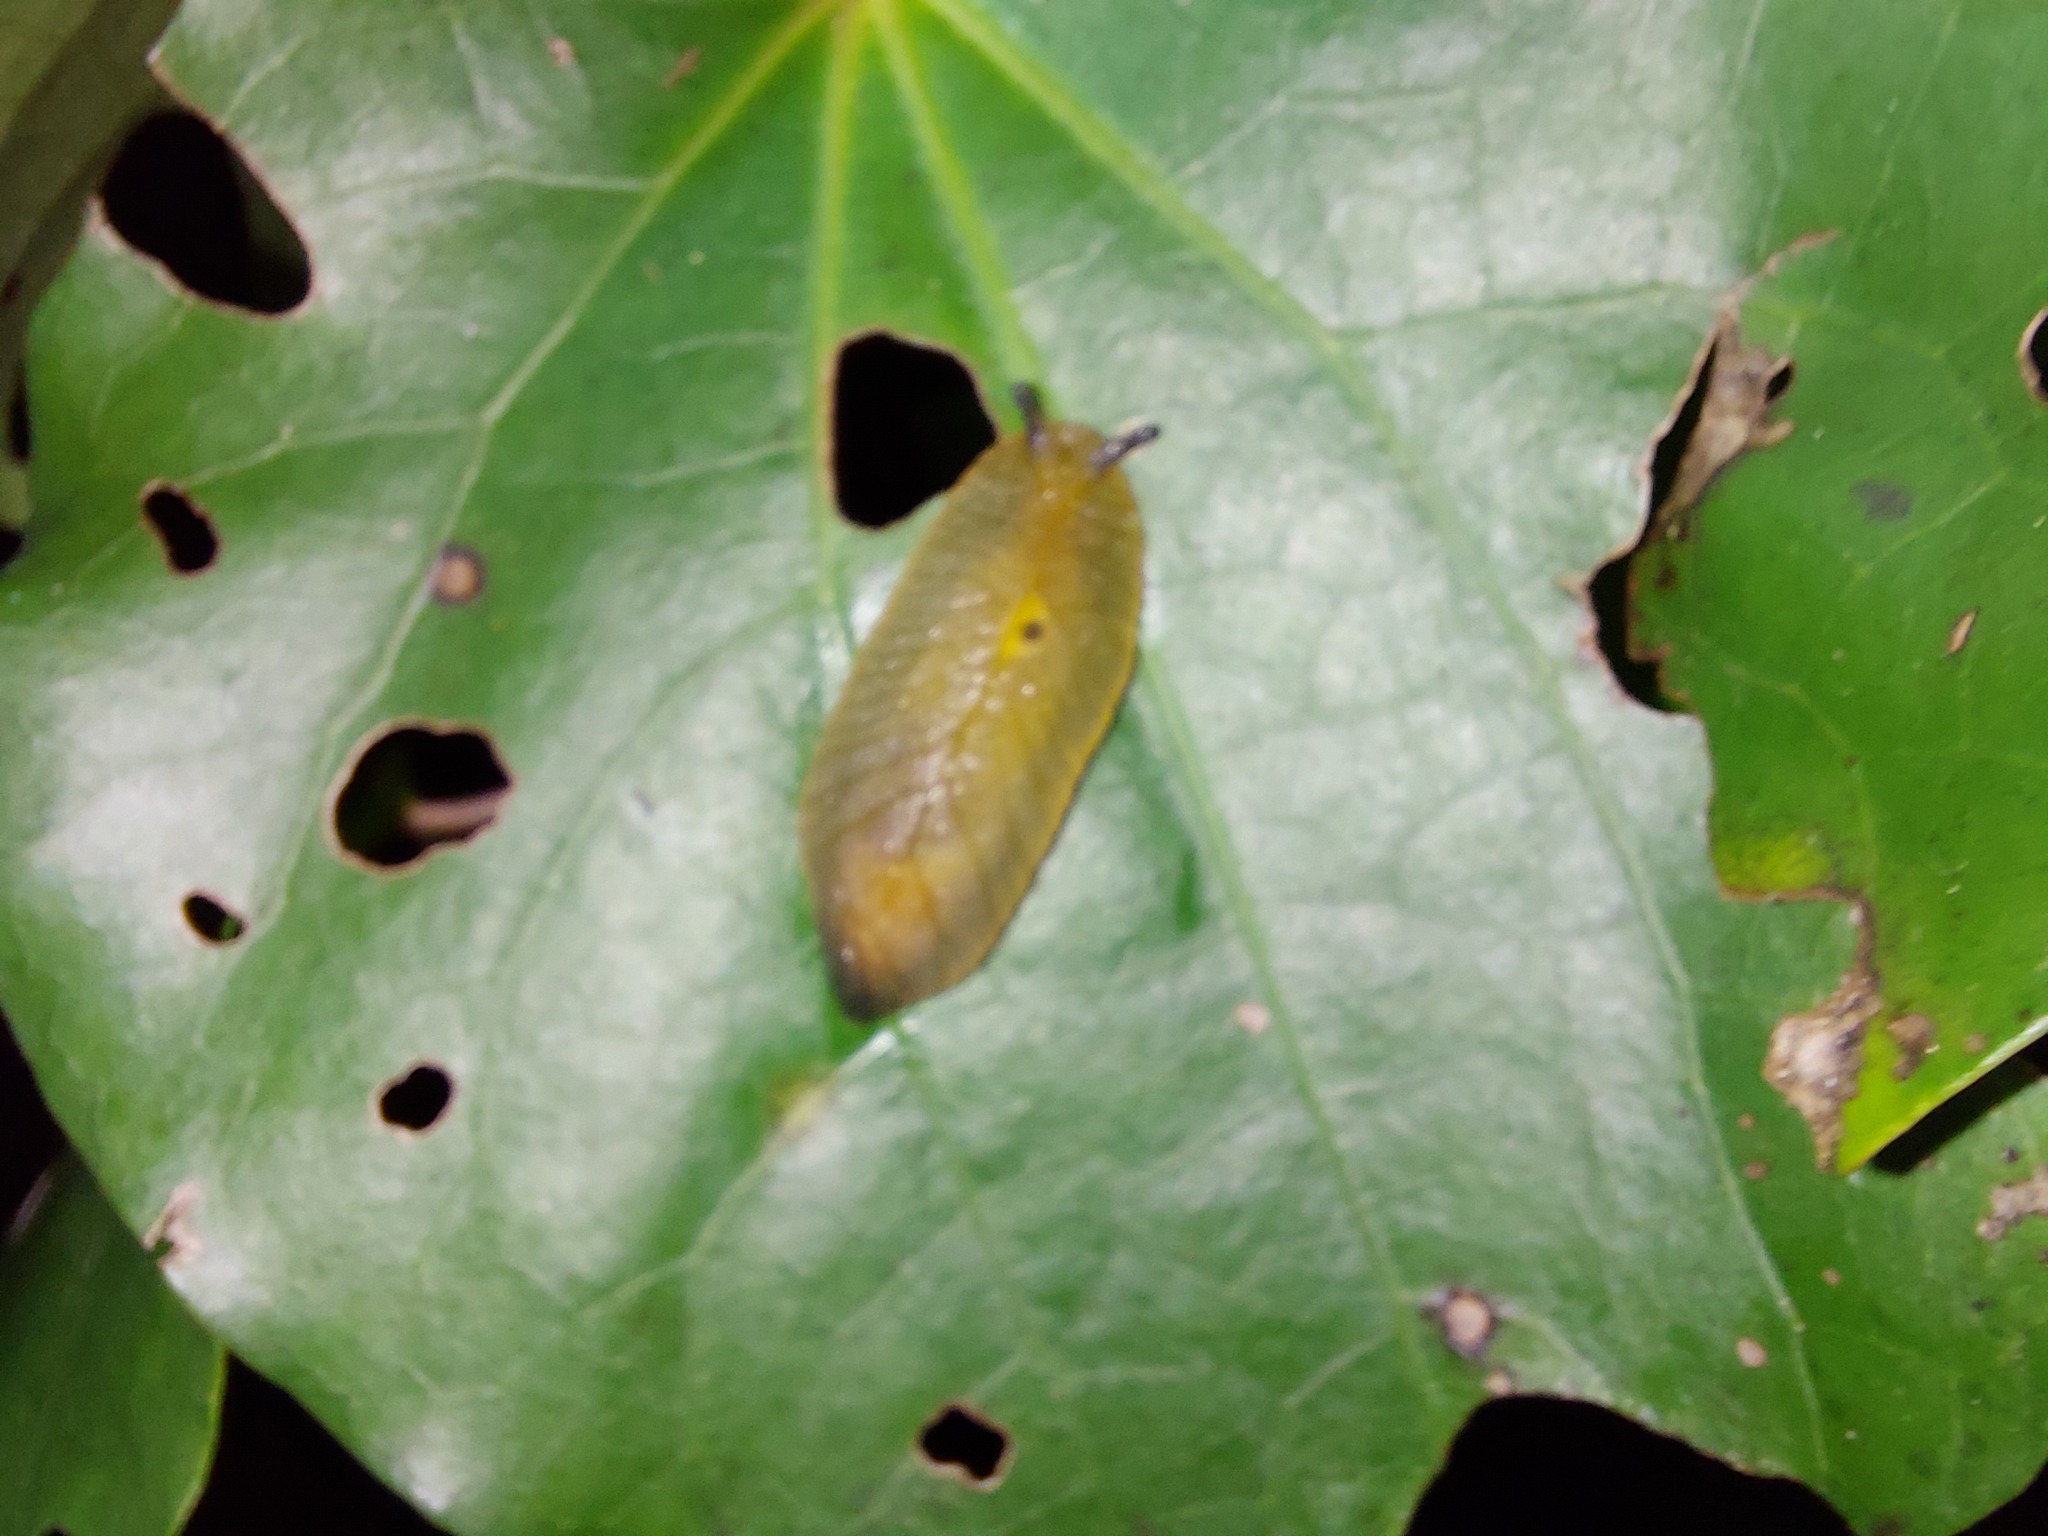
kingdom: Plantae
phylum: Tracheophyta
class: Magnoliopsida
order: Piperales
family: Piperaceae
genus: Macropiper
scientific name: Macropiper excelsum
